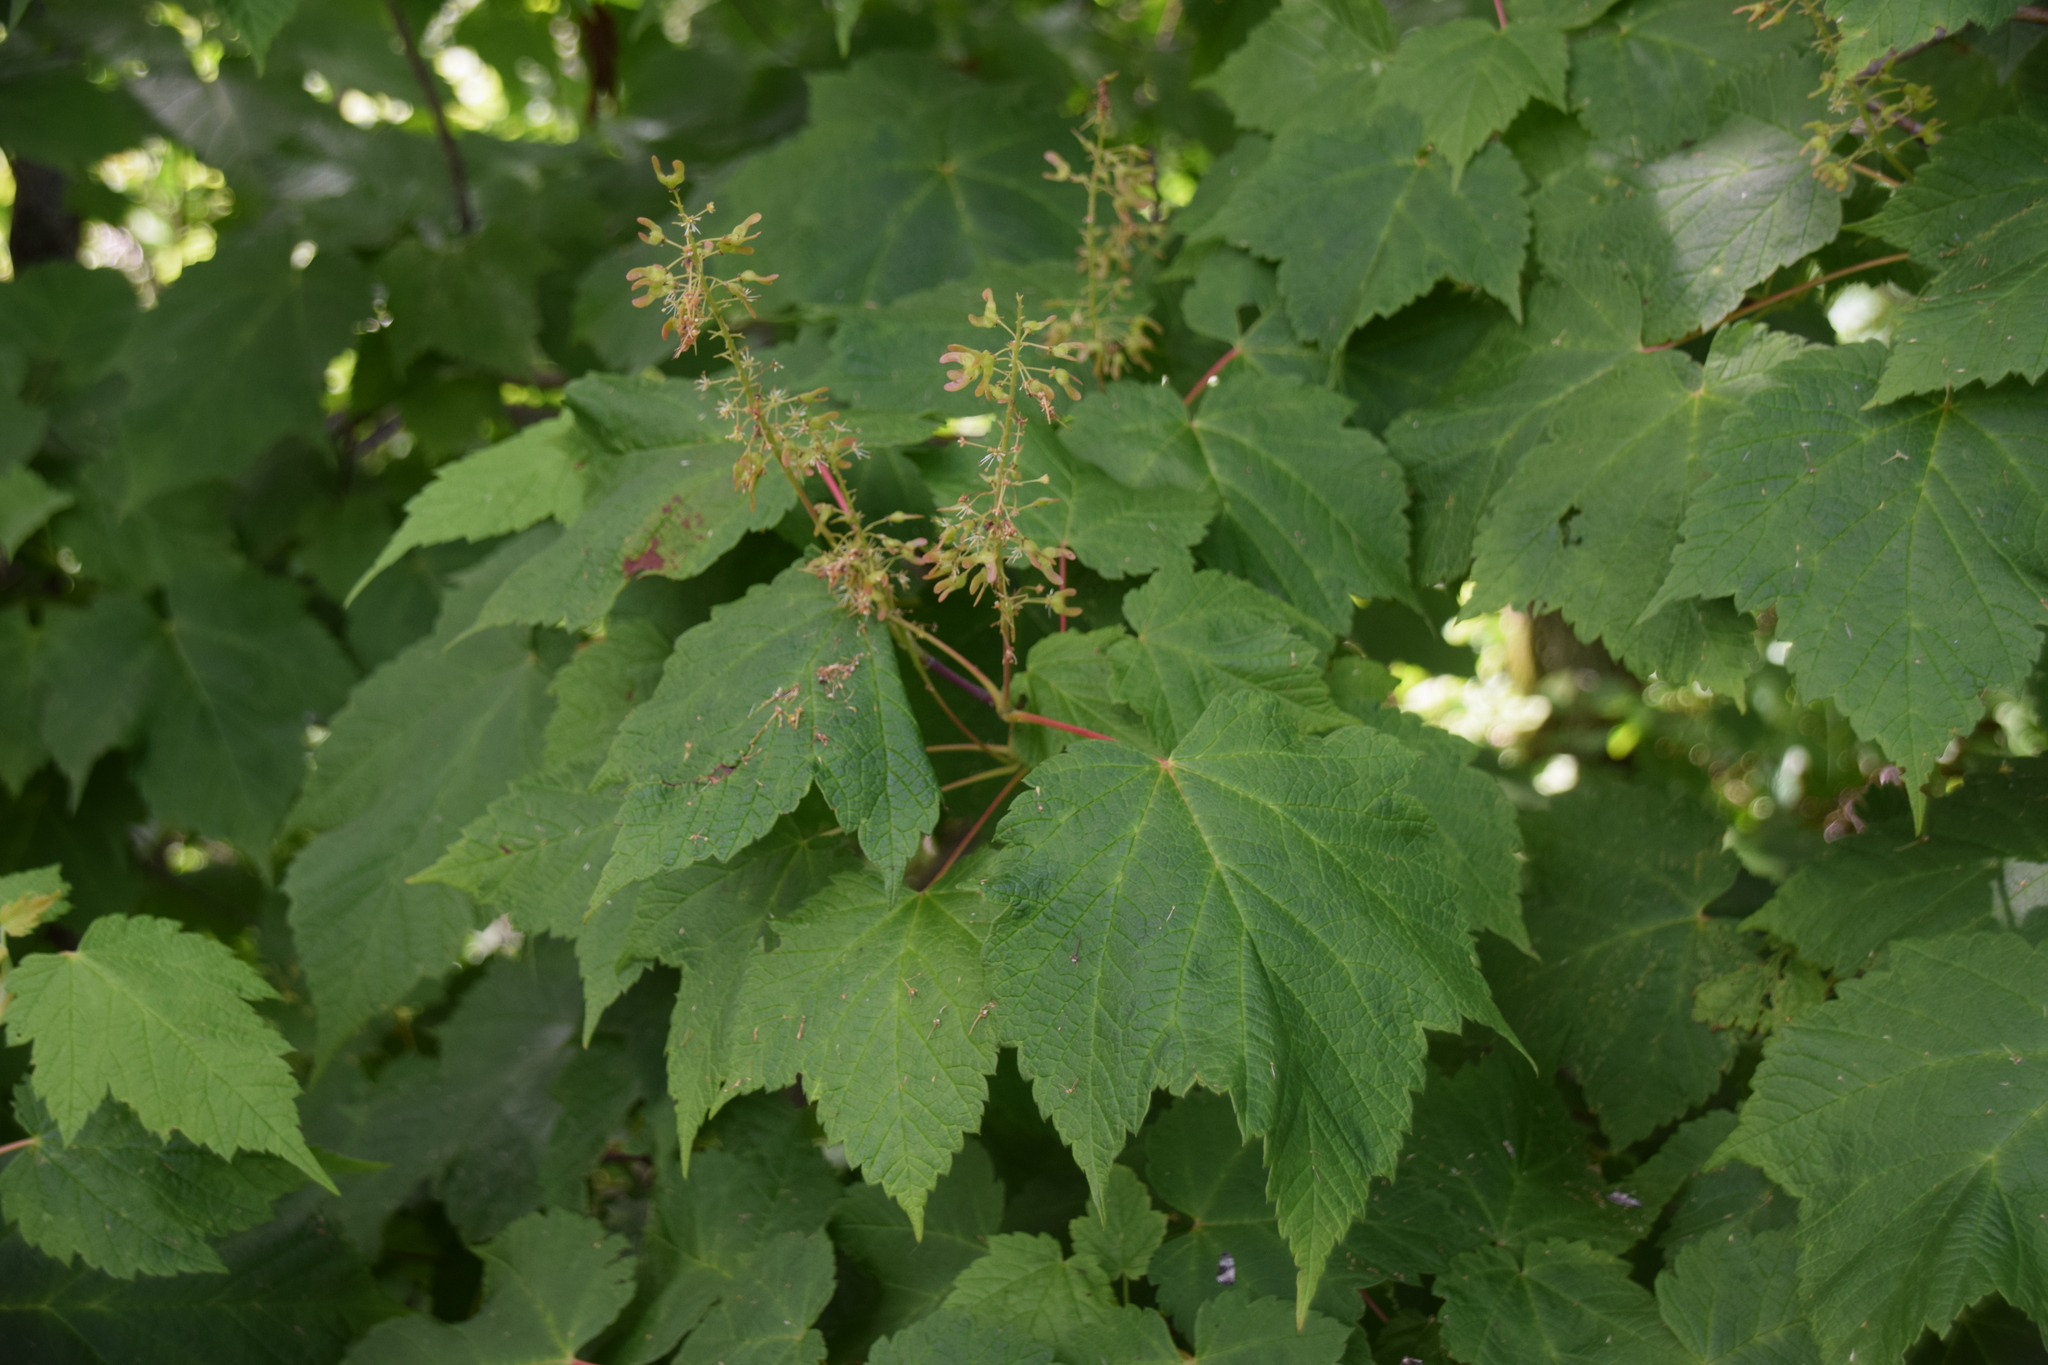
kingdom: Plantae
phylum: Tracheophyta
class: Magnoliopsida
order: Sapindales
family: Sapindaceae
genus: Acer
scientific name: Acer spicatum
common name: Mountain maple
